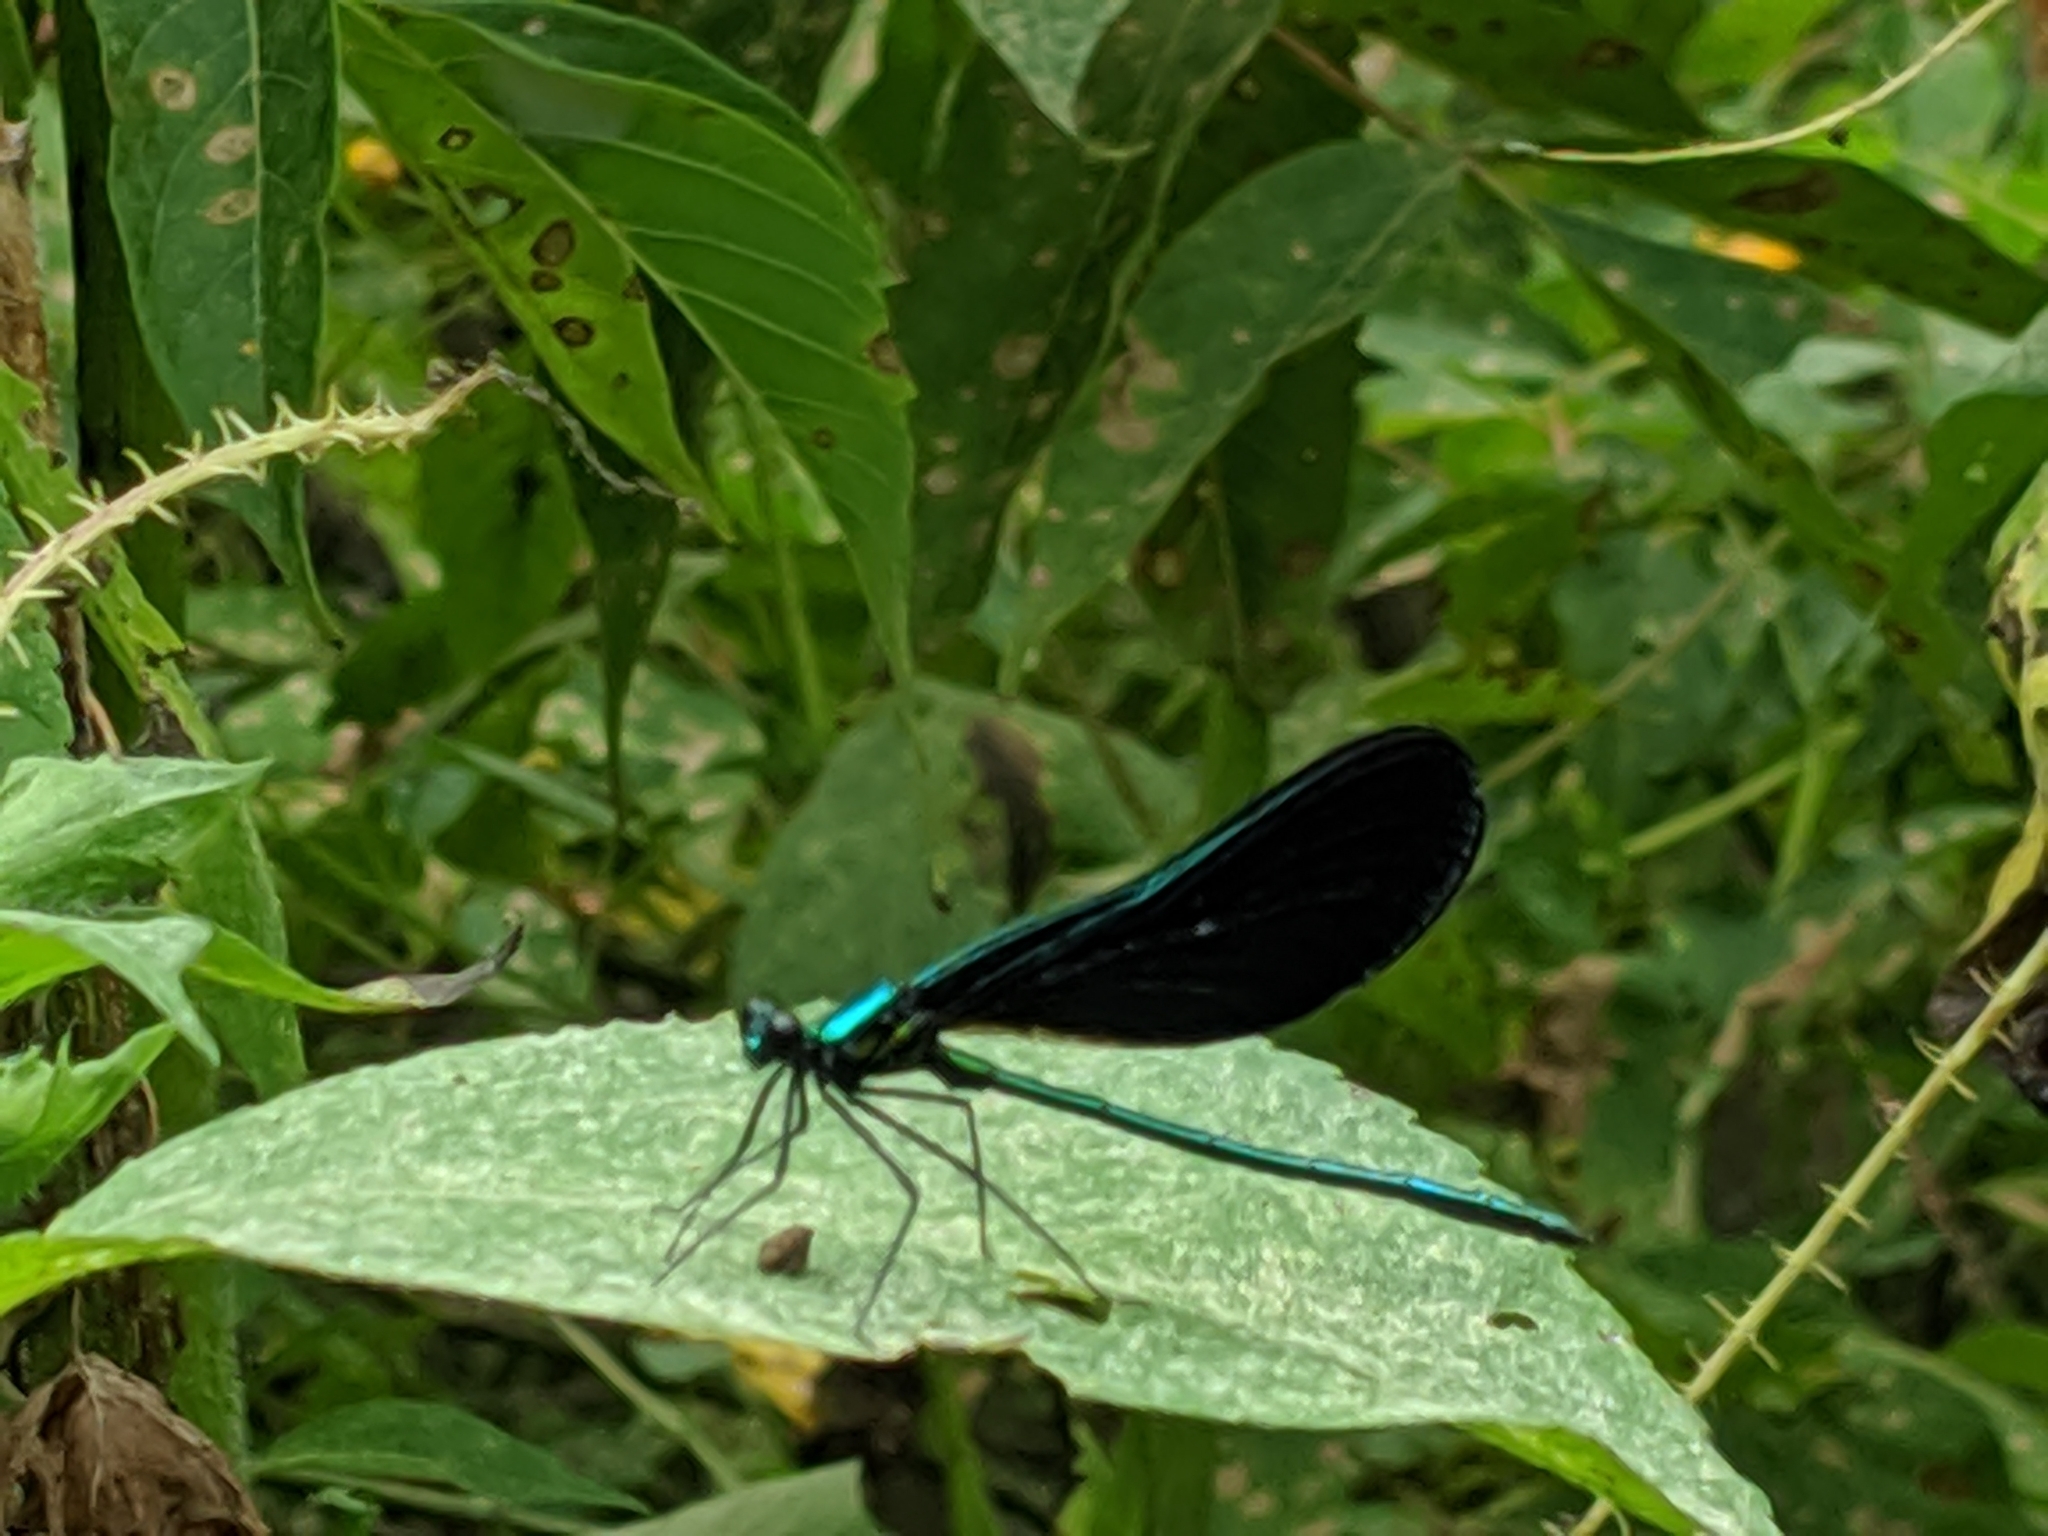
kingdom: Animalia
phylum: Arthropoda
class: Insecta
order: Odonata
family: Calopterygidae
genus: Calopteryx
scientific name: Calopteryx maculata
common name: Ebony jewelwing
